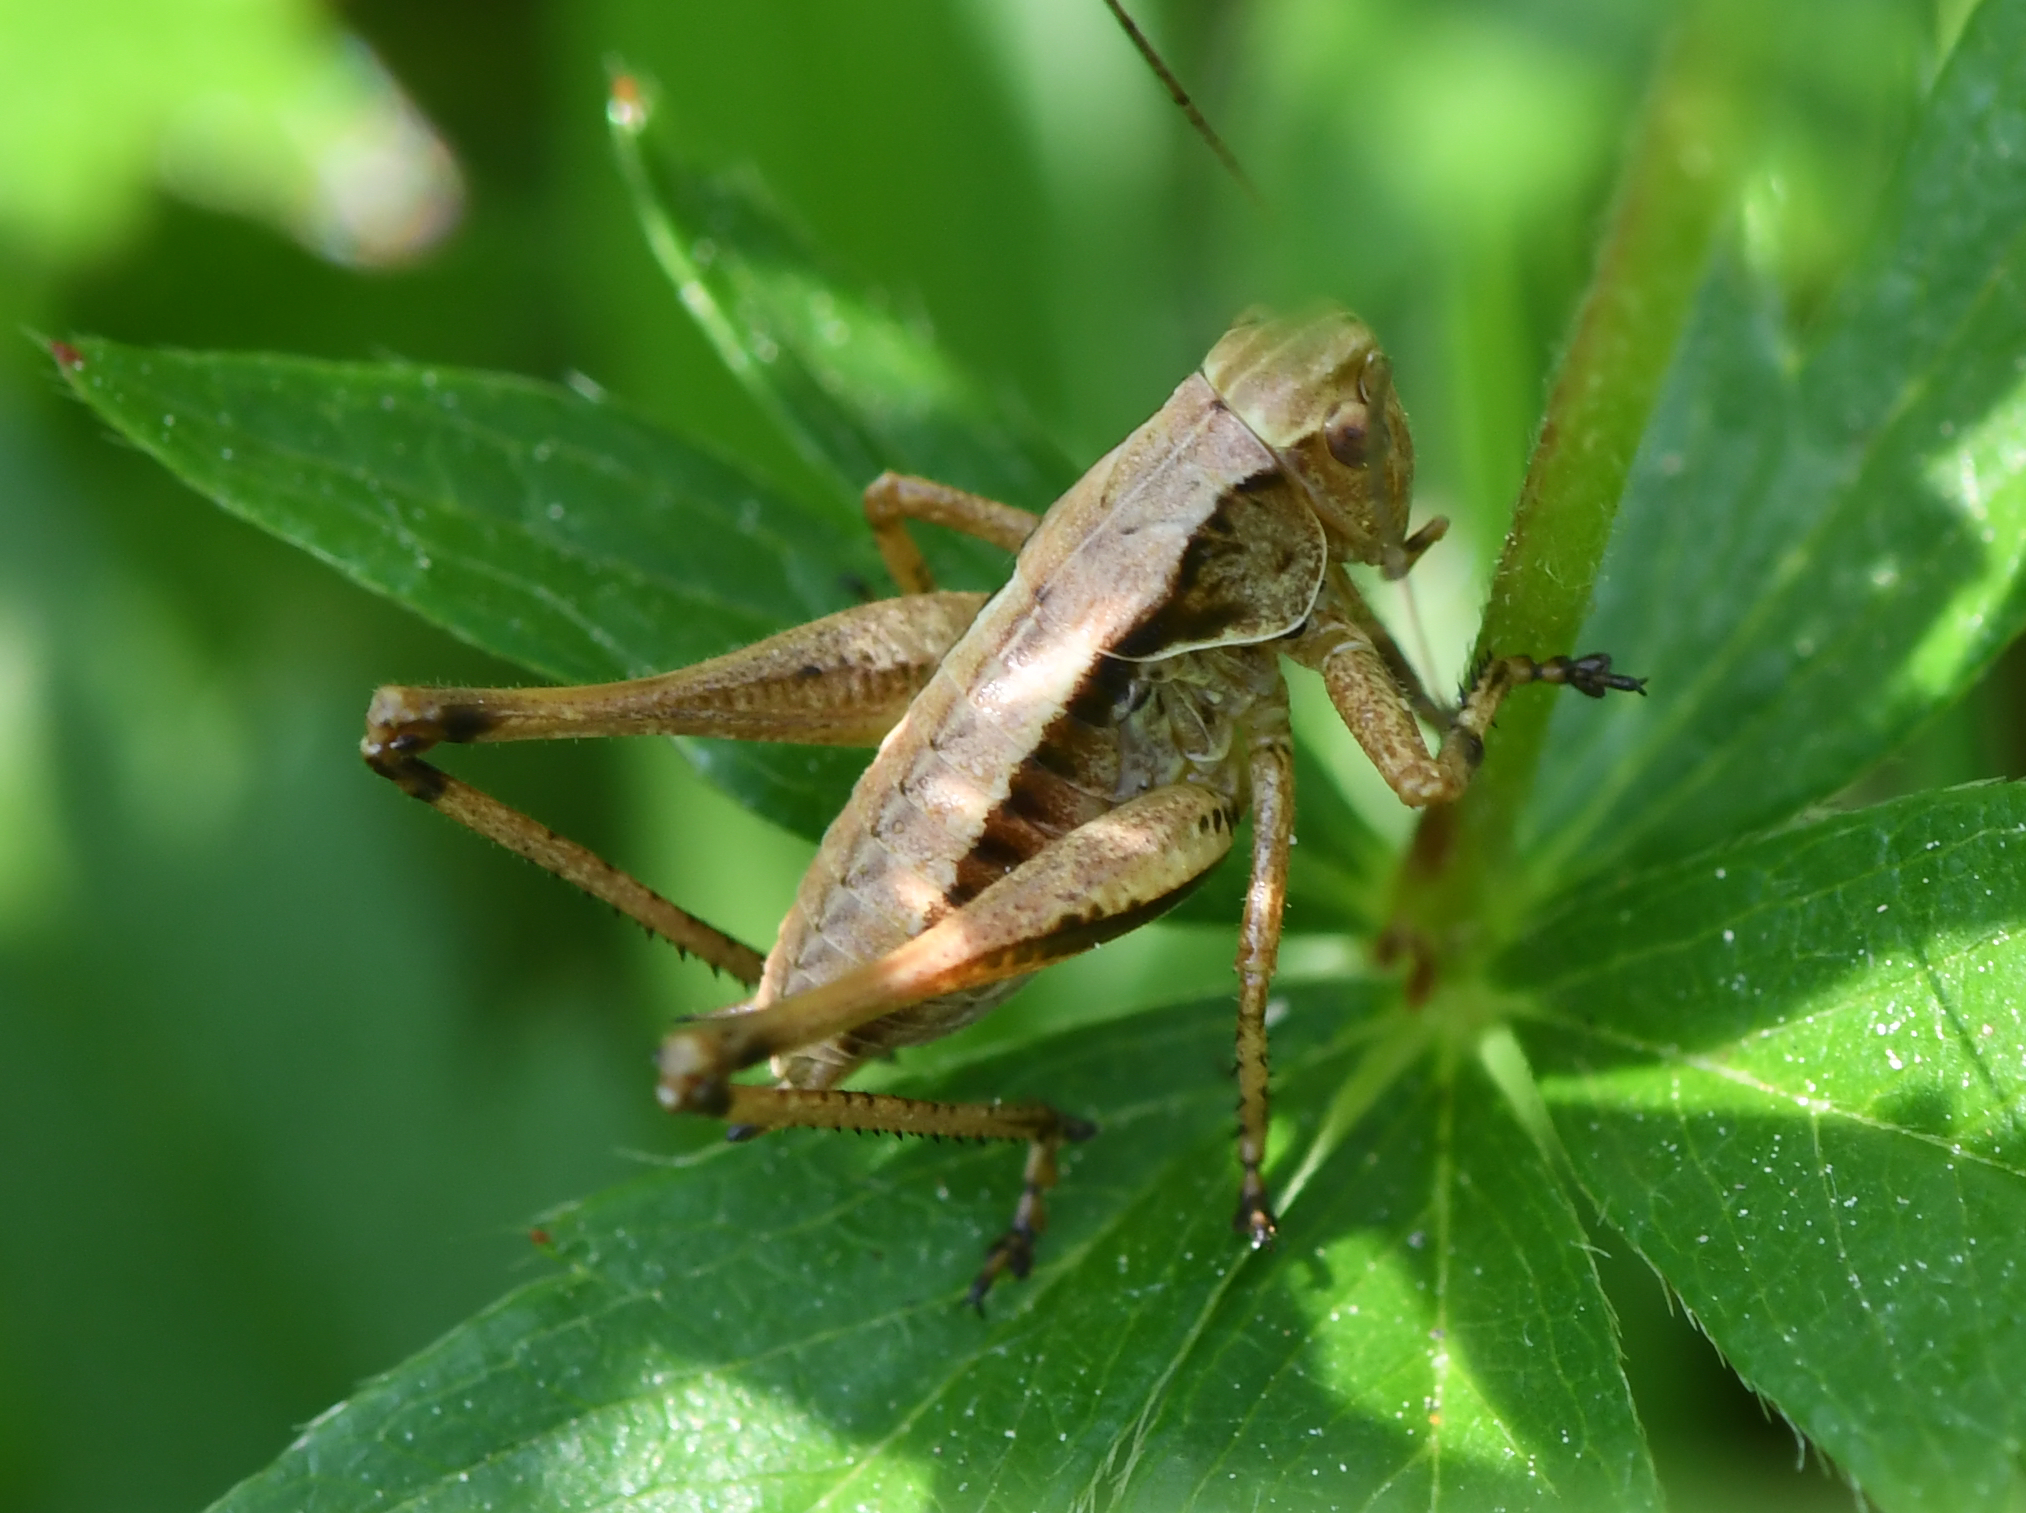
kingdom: Animalia
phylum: Arthropoda
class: Insecta
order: Orthoptera
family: Tettigoniidae
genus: Pholidoptera
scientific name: Pholidoptera griseoaptera
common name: Dark bush-cricket
